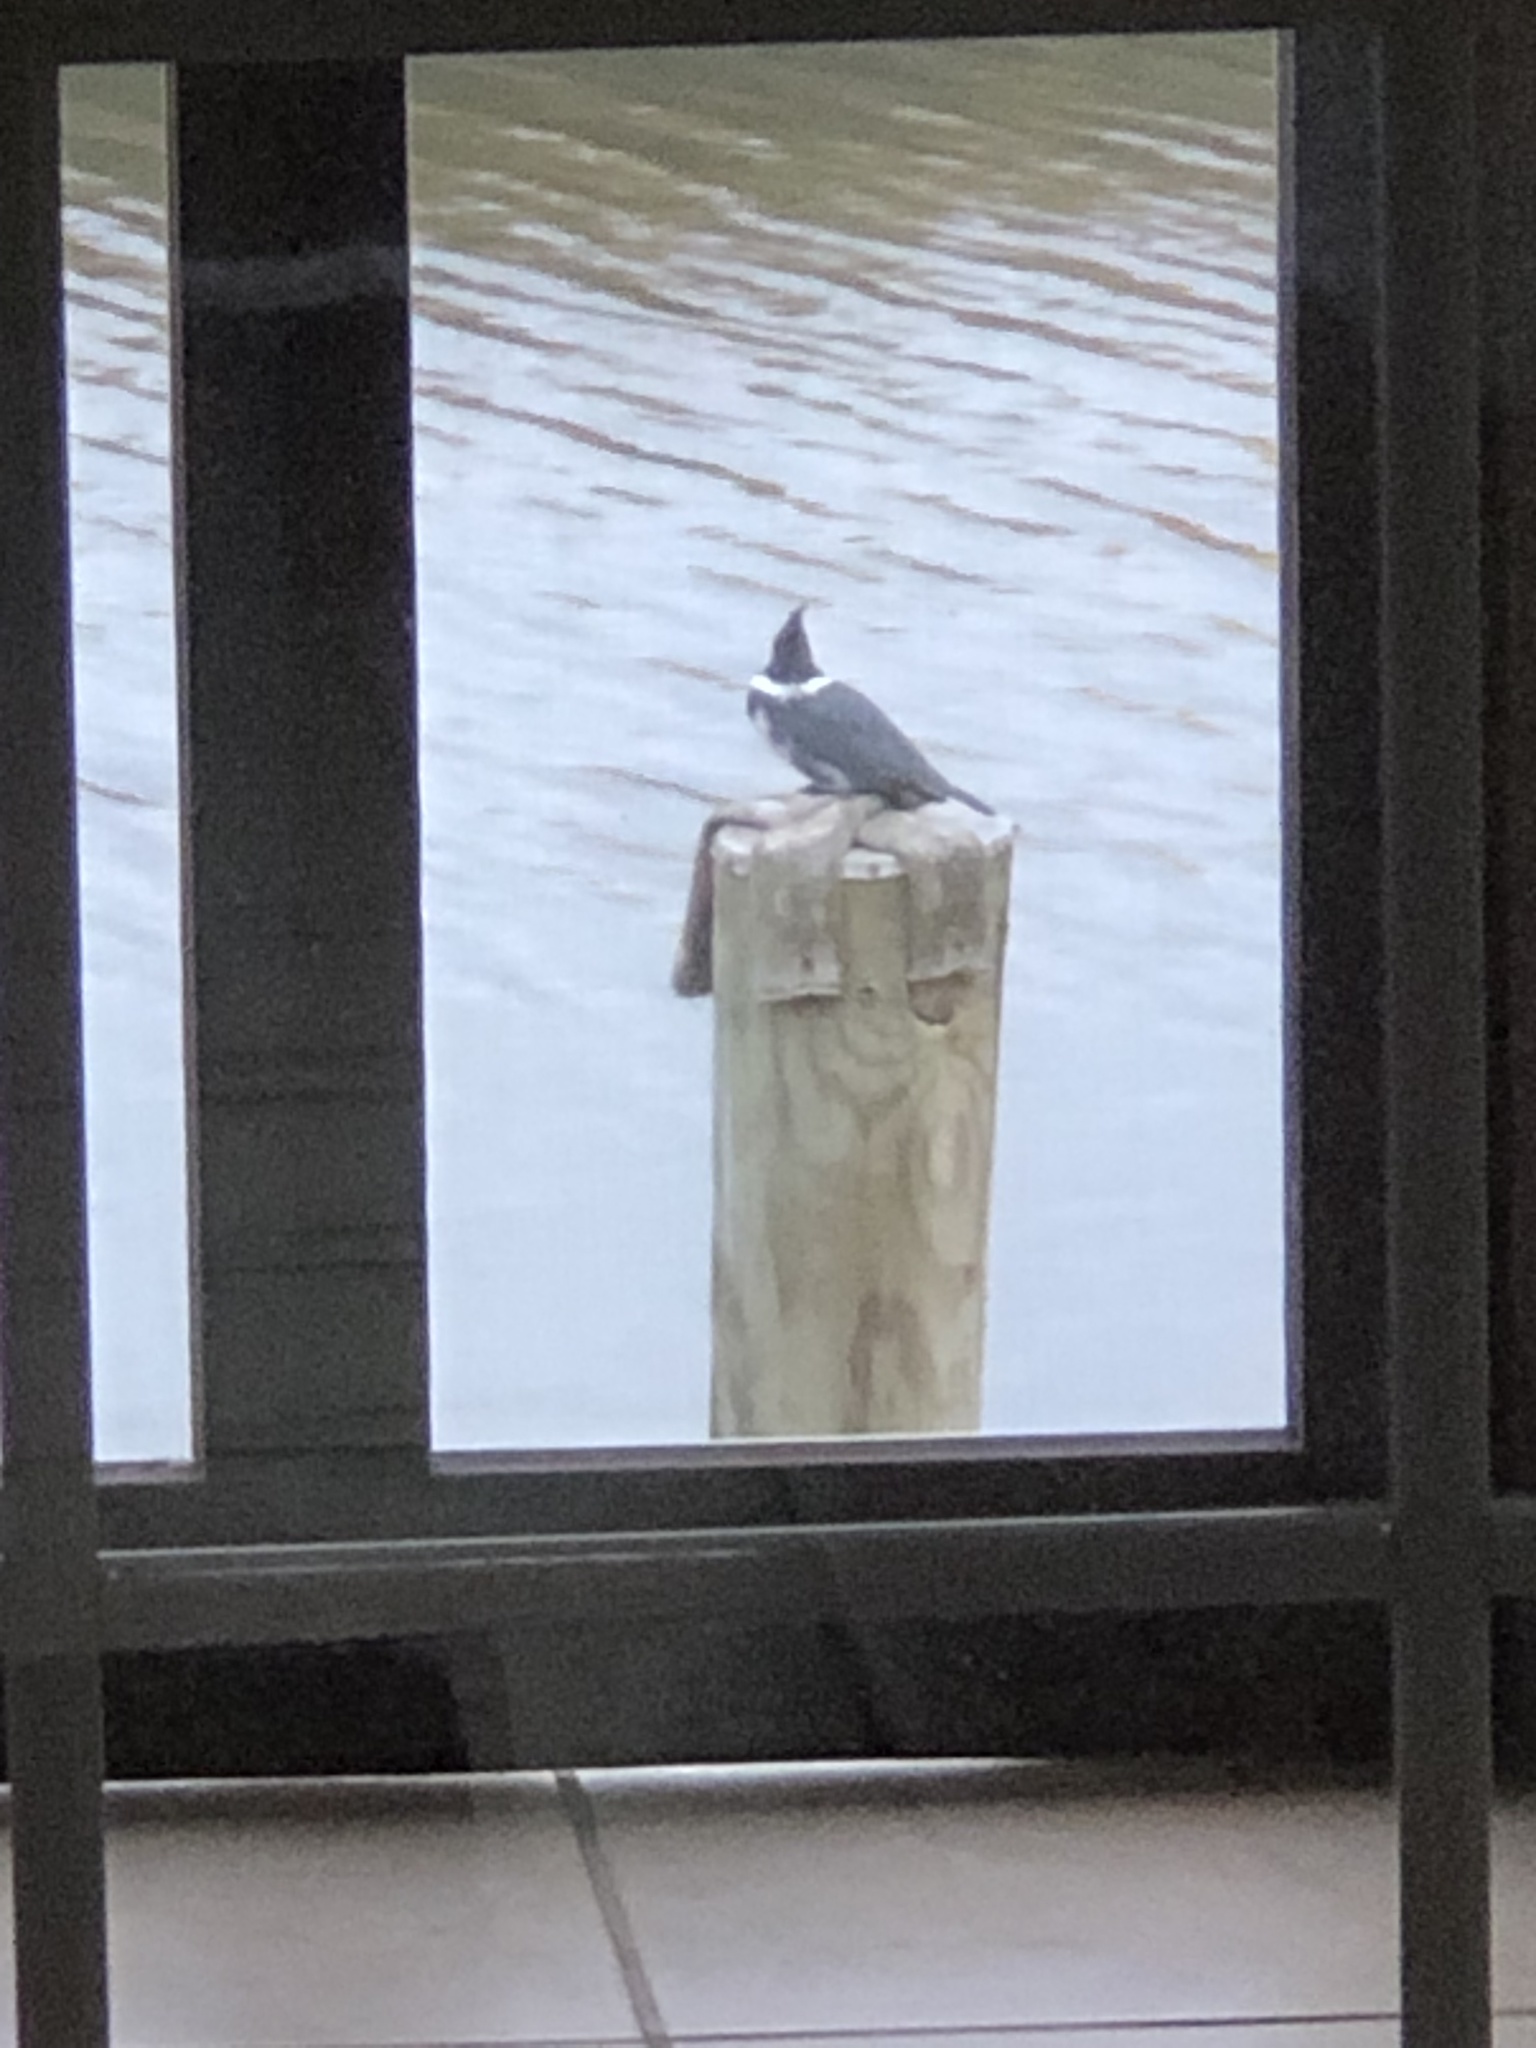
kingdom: Animalia
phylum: Chordata
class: Aves
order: Coraciiformes
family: Alcedinidae
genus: Megaceryle
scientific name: Megaceryle alcyon
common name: Belted kingfisher
